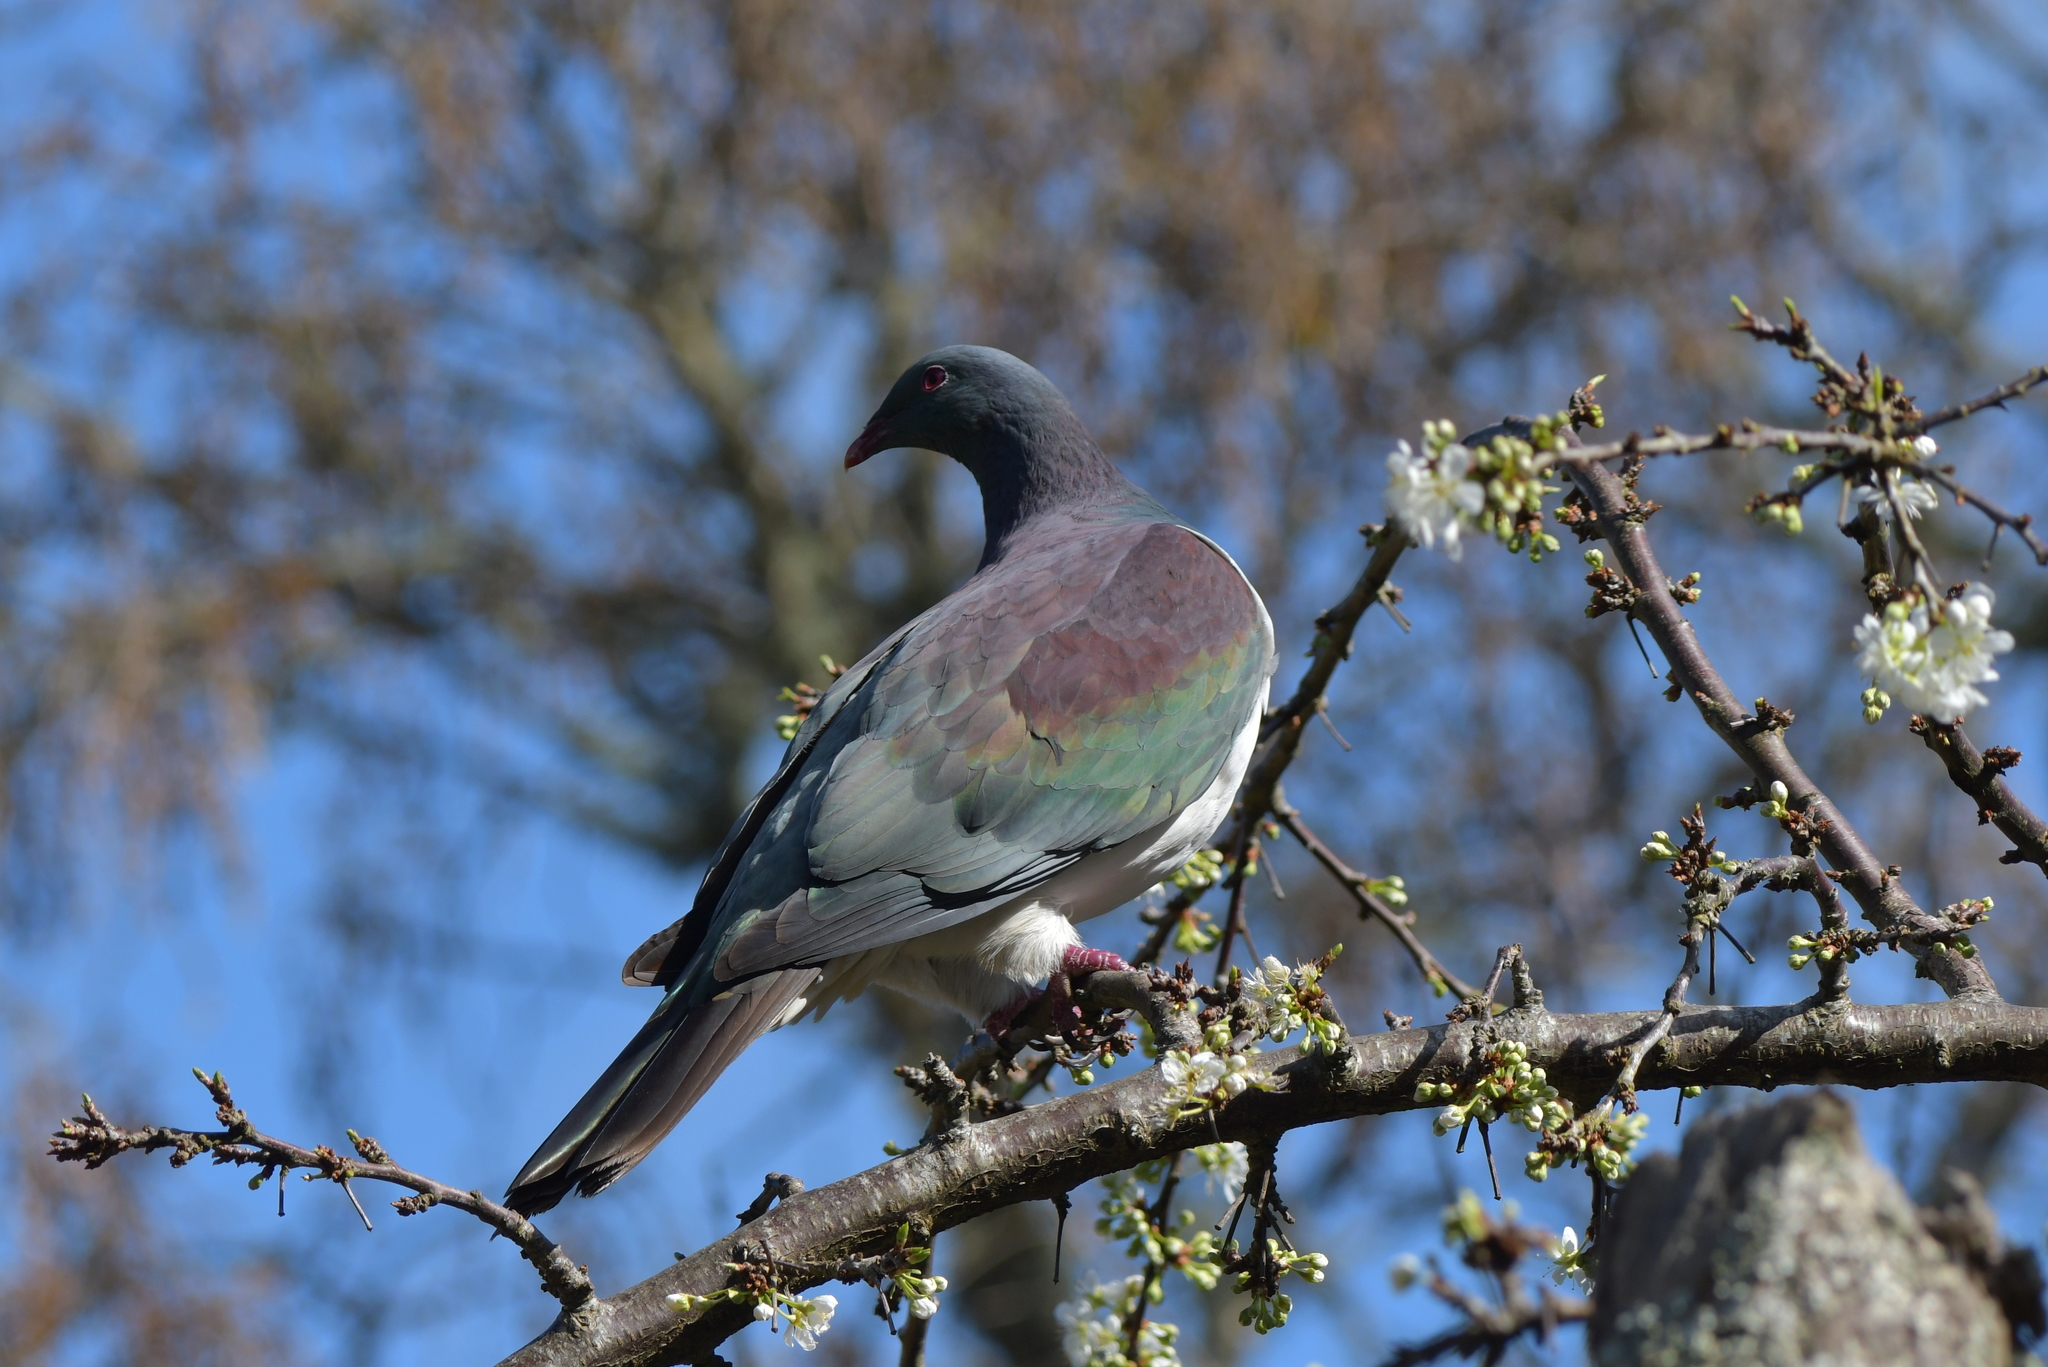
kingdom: Animalia
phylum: Chordata
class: Aves
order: Columbiformes
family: Columbidae
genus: Hemiphaga
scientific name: Hemiphaga novaeseelandiae
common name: New zealand pigeon
